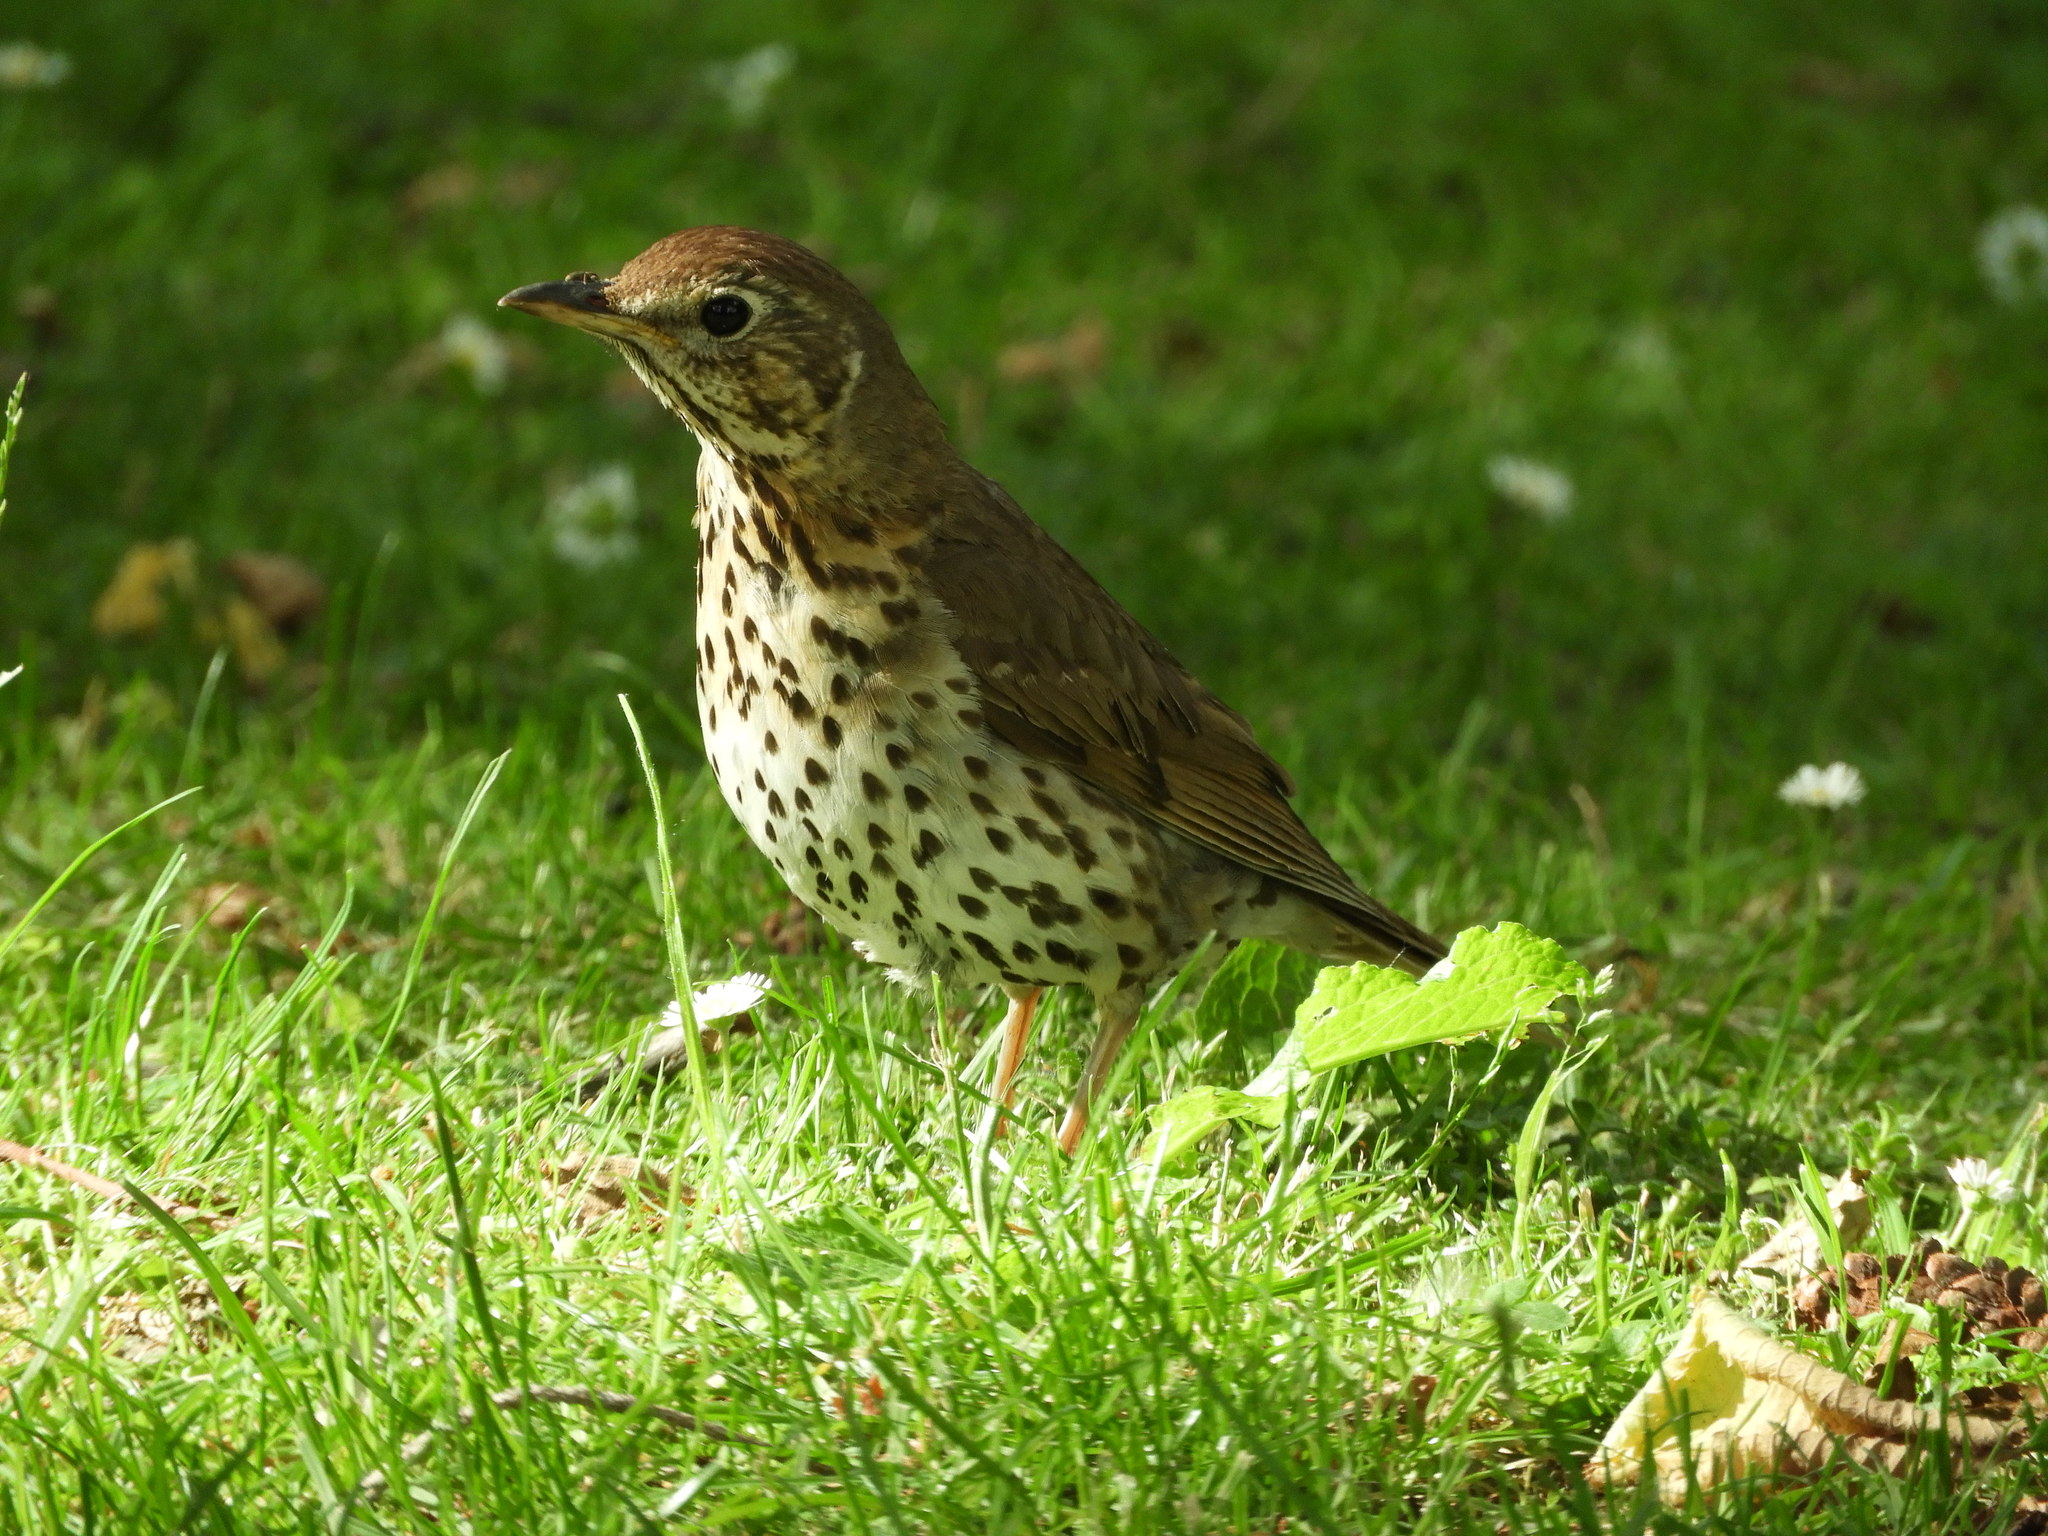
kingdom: Animalia
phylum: Chordata
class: Aves
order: Passeriformes
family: Turdidae
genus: Turdus
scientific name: Turdus philomelos
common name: Song thrush
